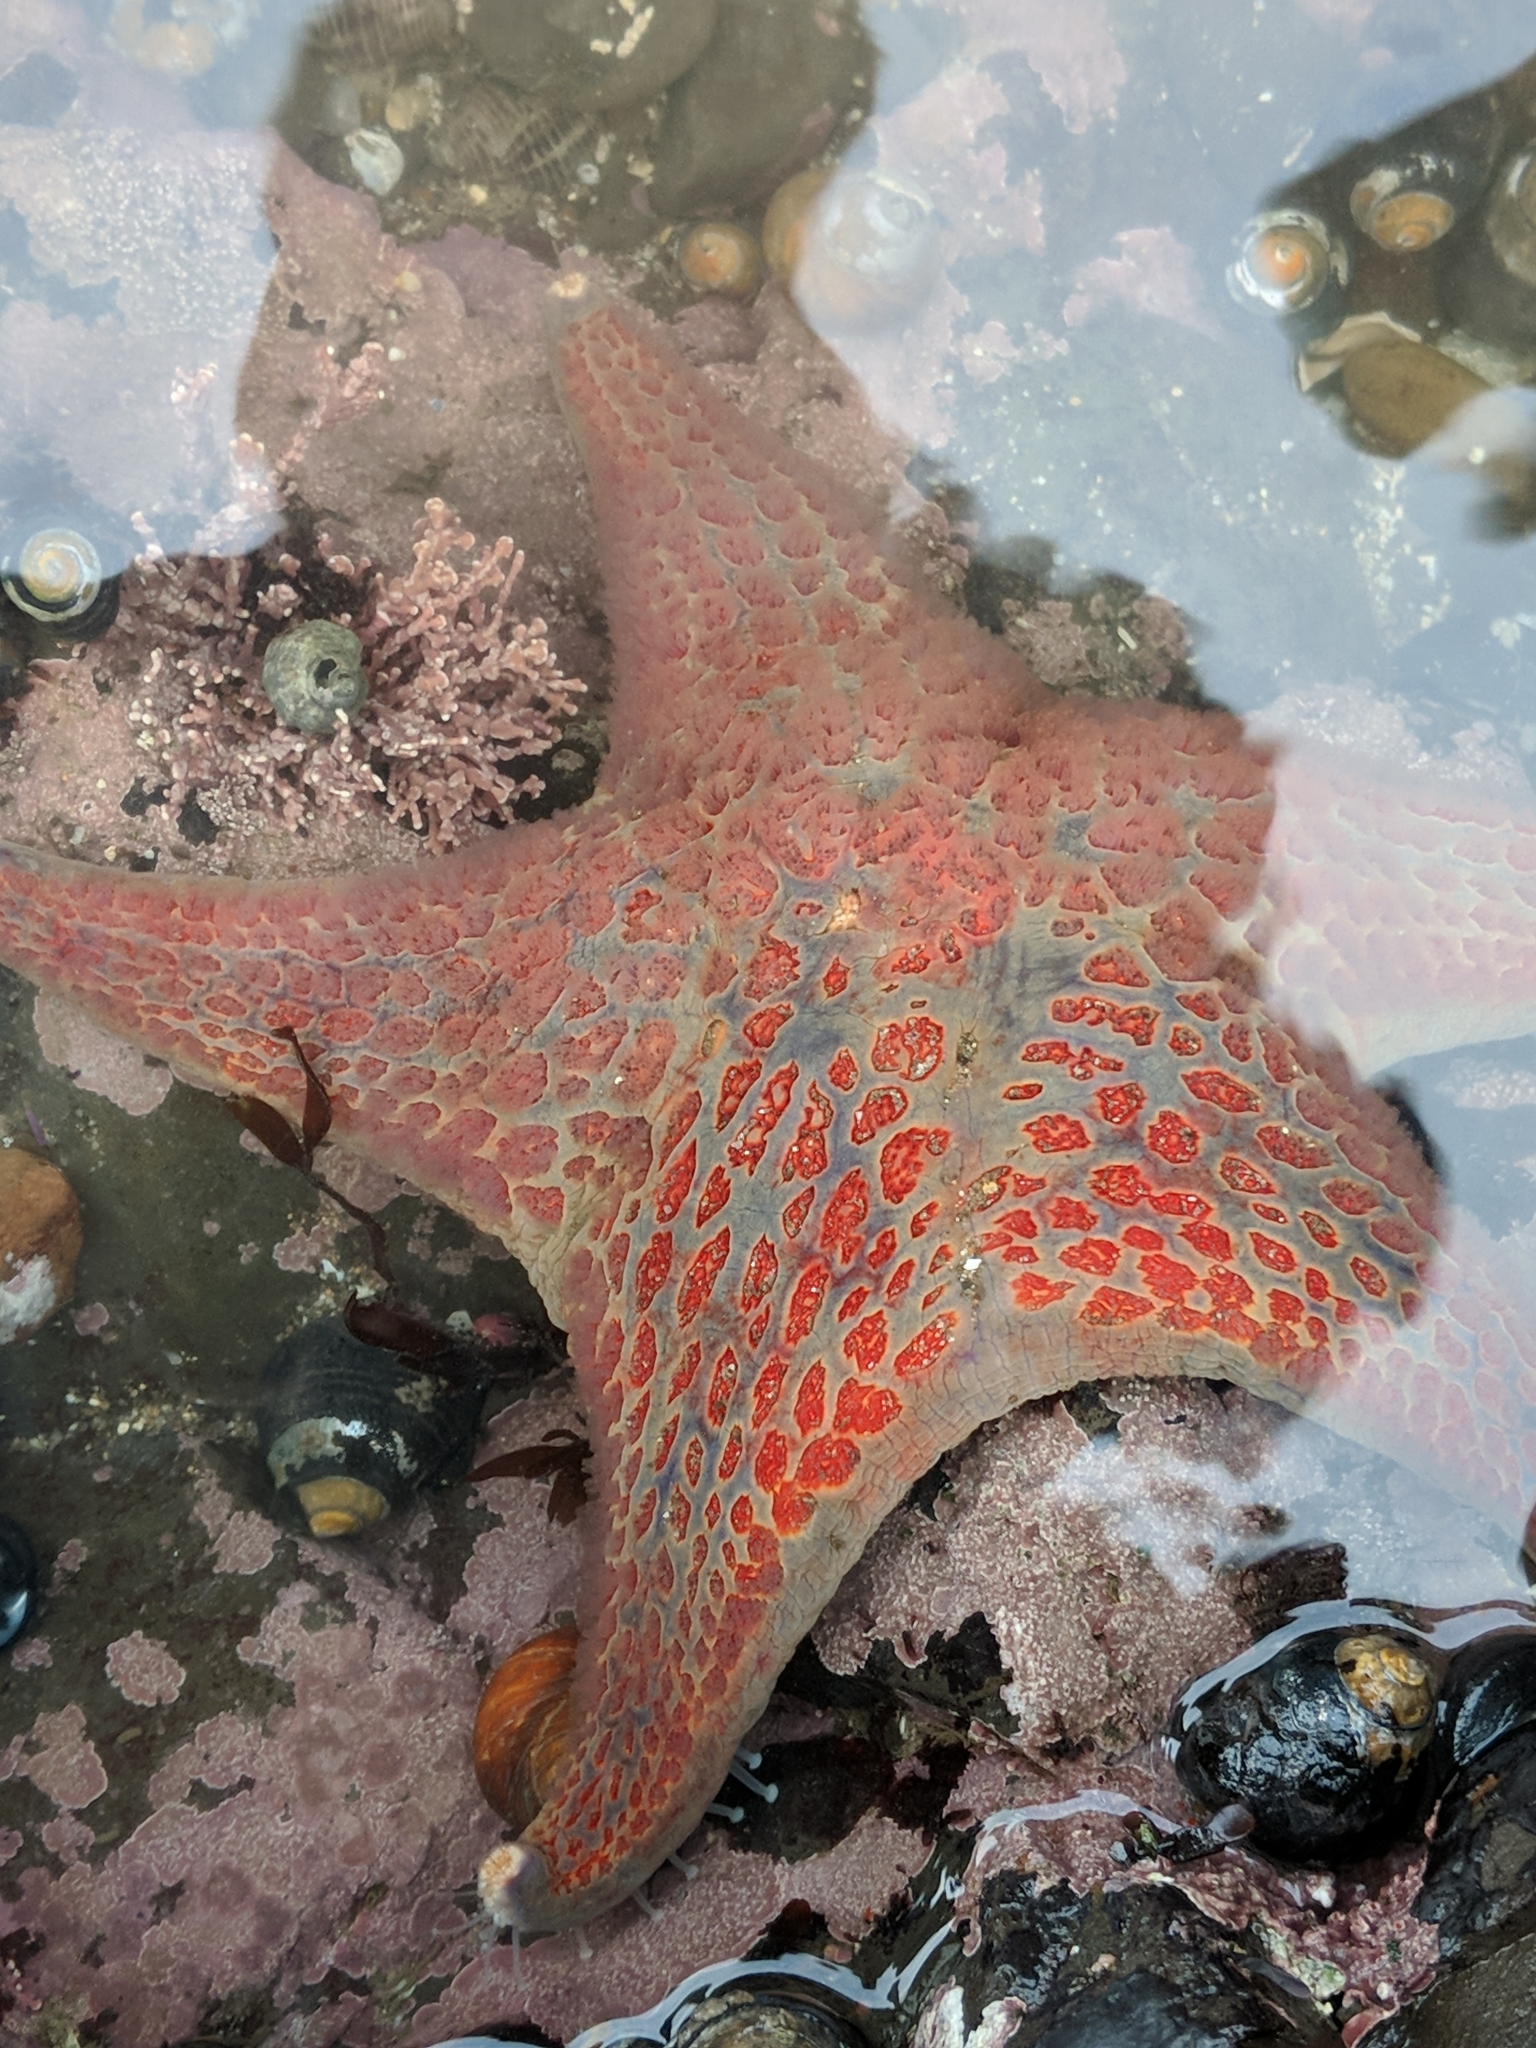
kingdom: Animalia
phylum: Echinodermata
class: Asteroidea
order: Valvatida
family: Asteropseidae
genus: Dermasterias
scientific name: Dermasterias imbricata
